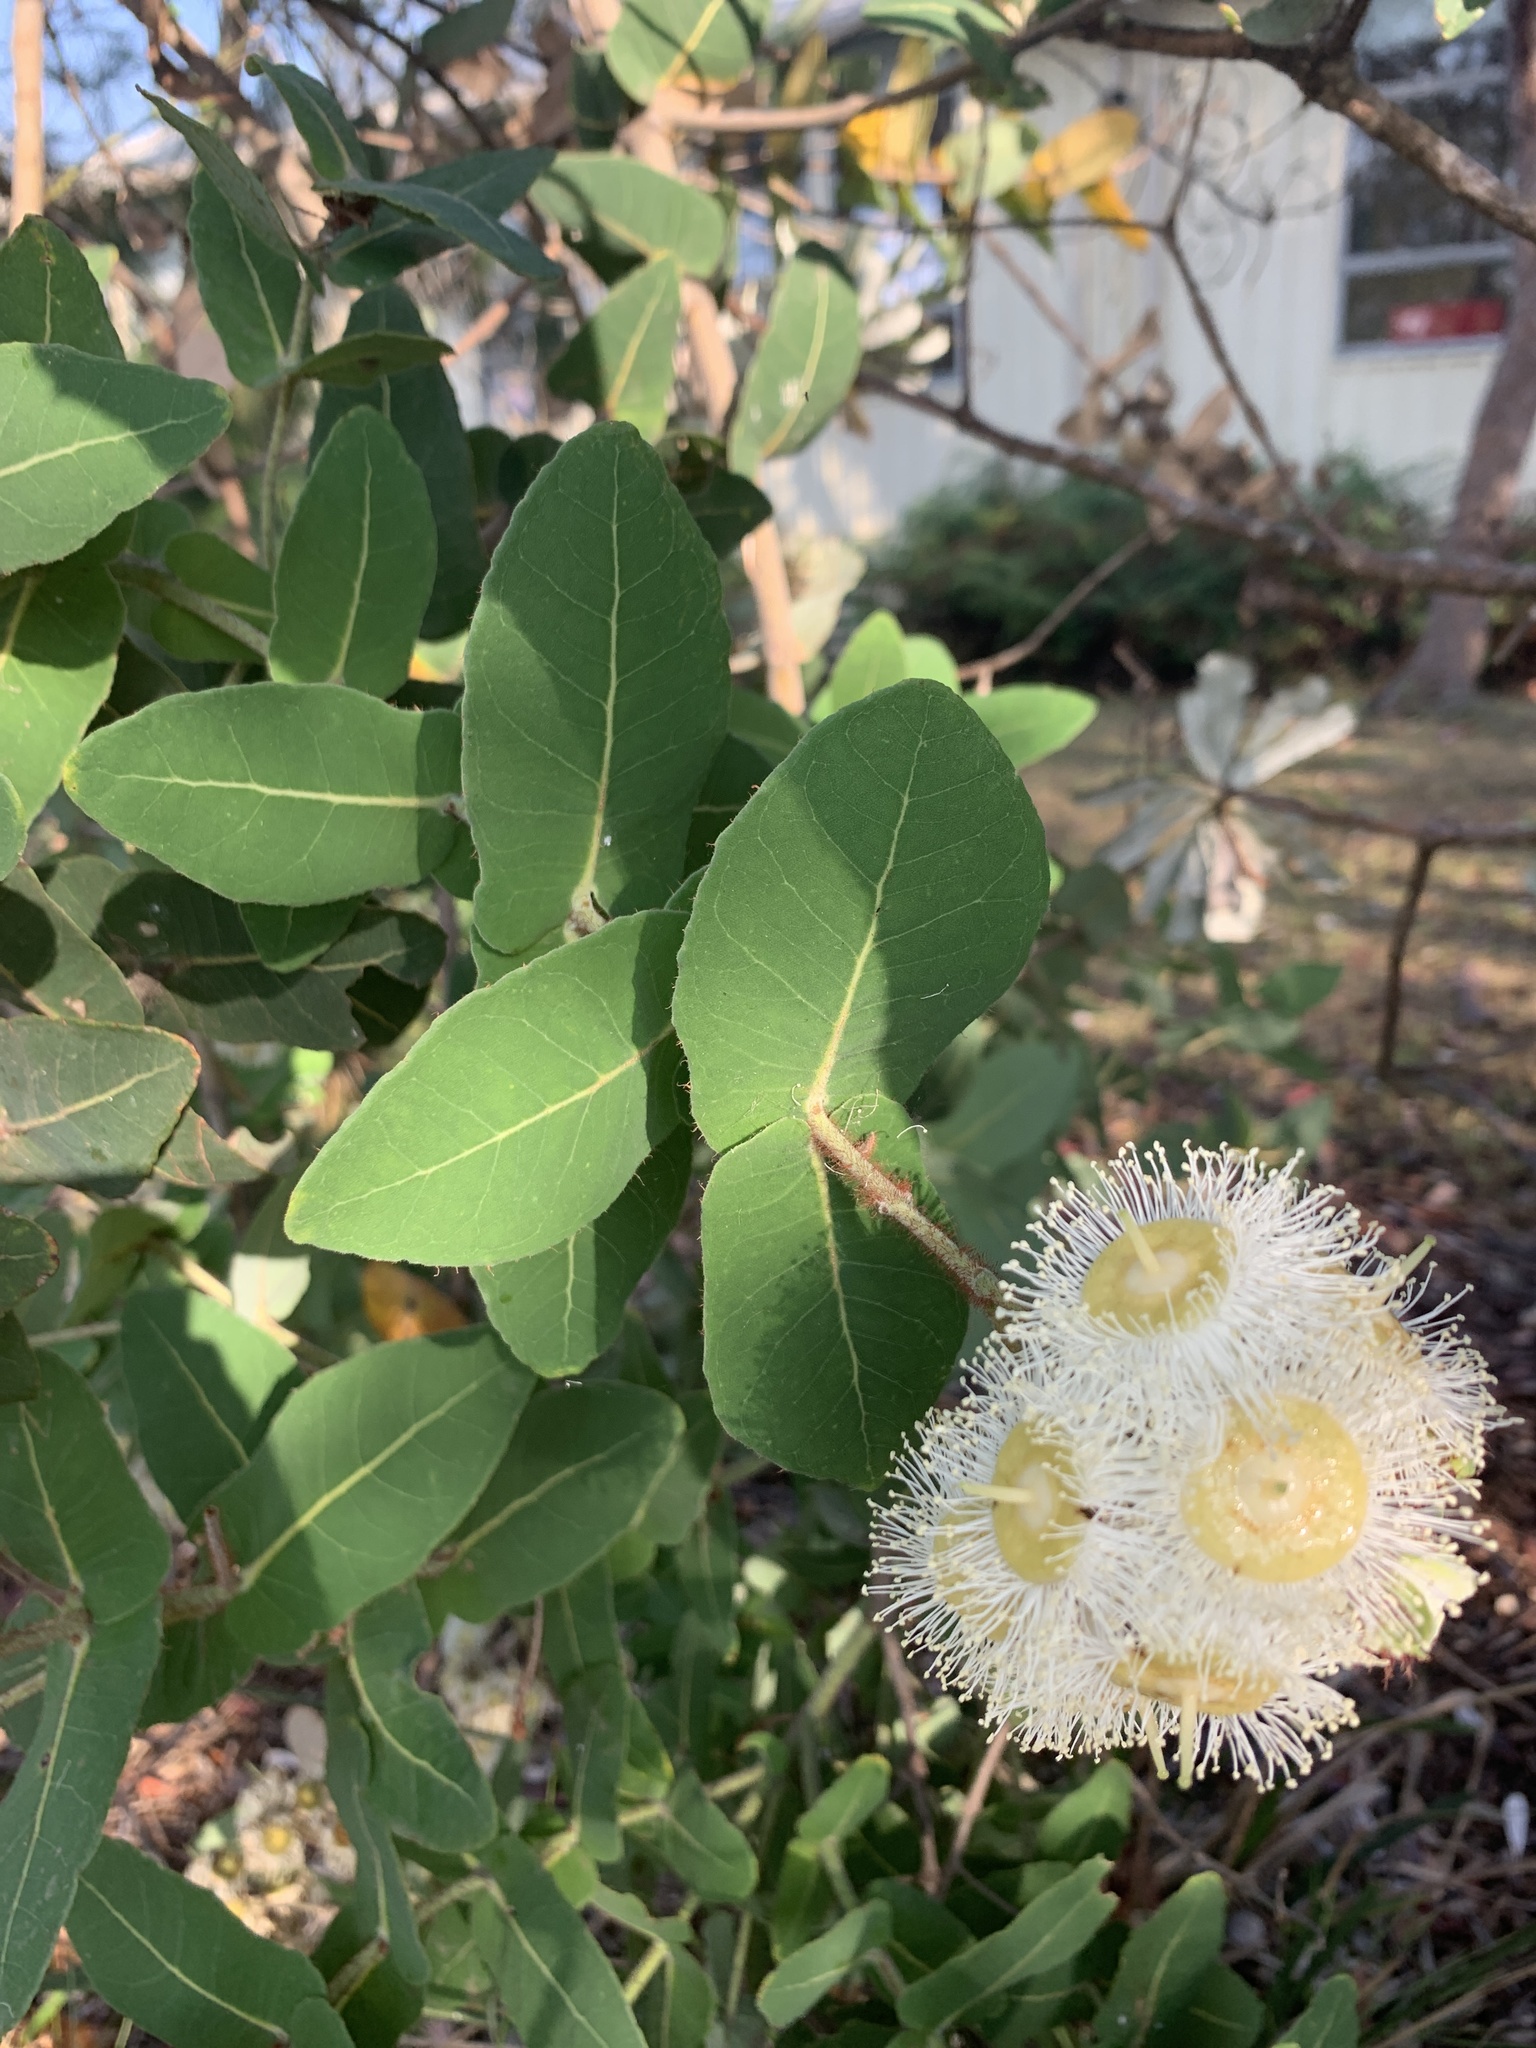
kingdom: Plantae
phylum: Tracheophyta
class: Magnoliopsida
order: Myrtales
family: Myrtaceae
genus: Angophora
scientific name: Angophora hispida
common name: Dwarf-apple
